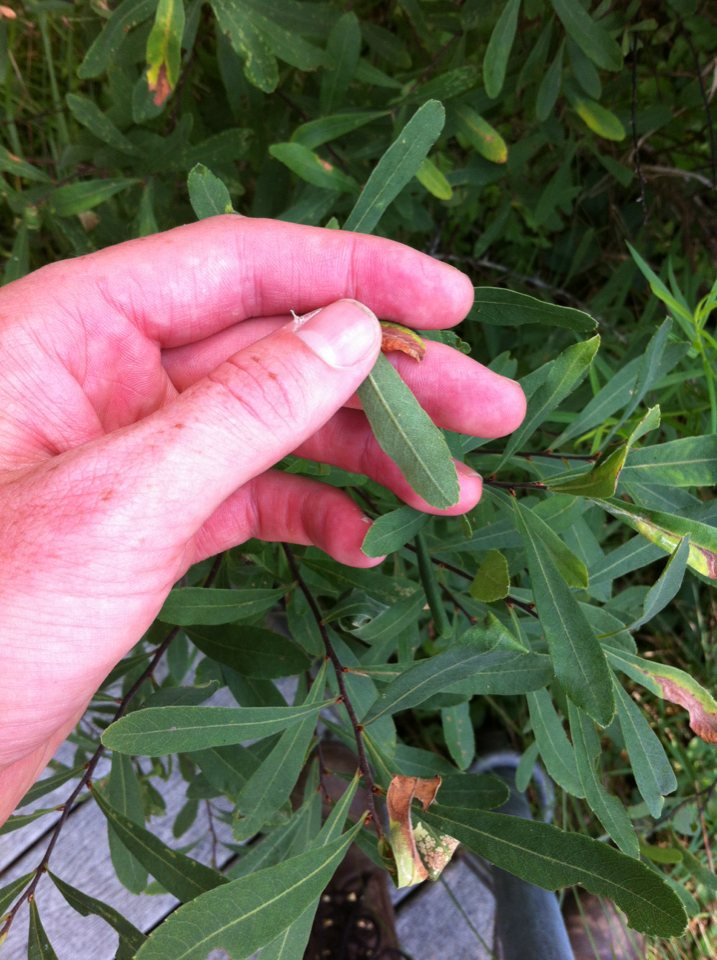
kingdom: Plantae
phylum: Tracheophyta
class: Magnoliopsida
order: Fagales
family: Myricaceae
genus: Myrica
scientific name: Myrica gale
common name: Sweet gale
